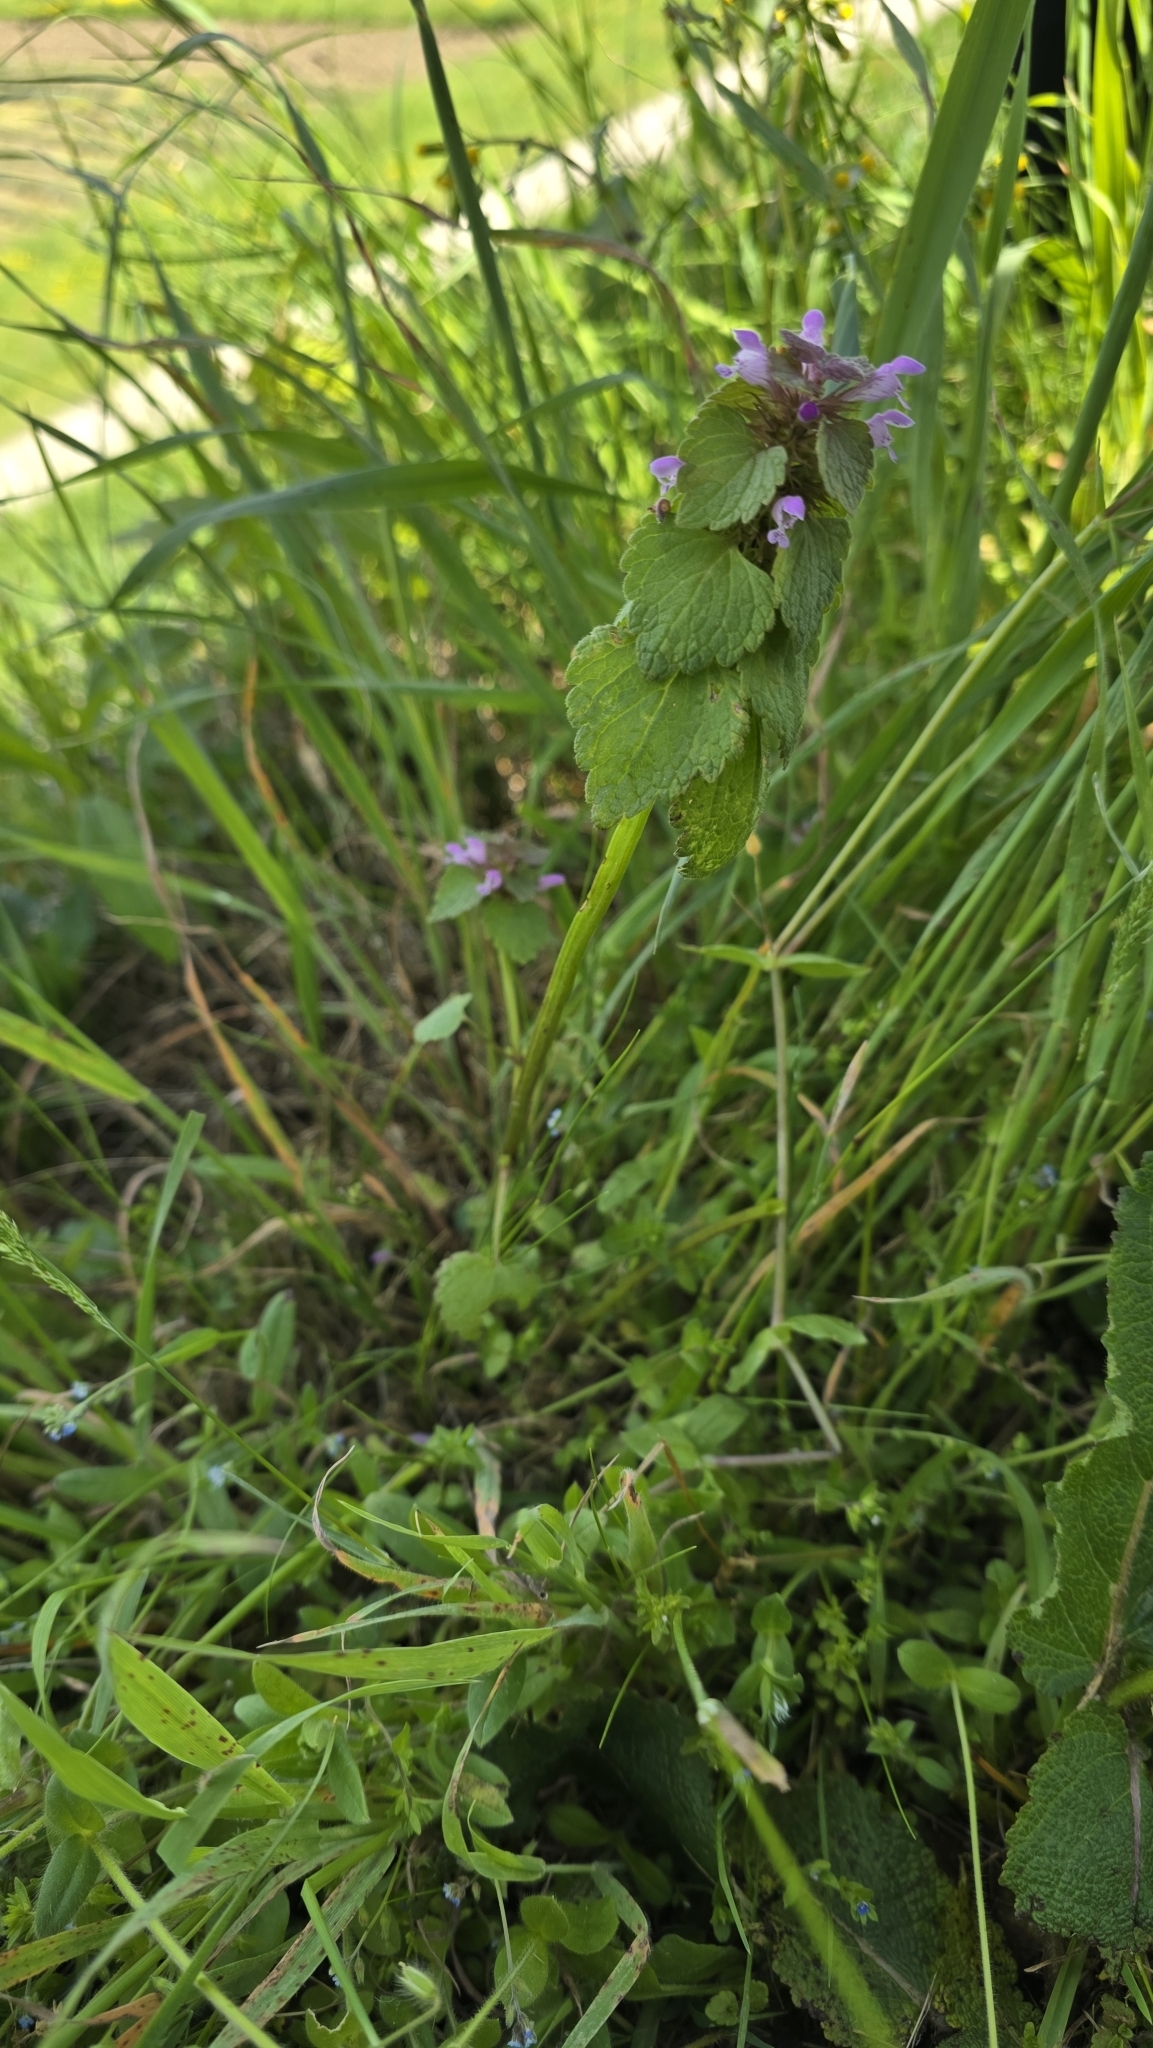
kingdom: Plantae
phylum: Tracheophyta
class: Magnoliopsida
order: Lamiales
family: Lamiaceae
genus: Lamium
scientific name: Lamium purpureum
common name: Red dead-nettle
